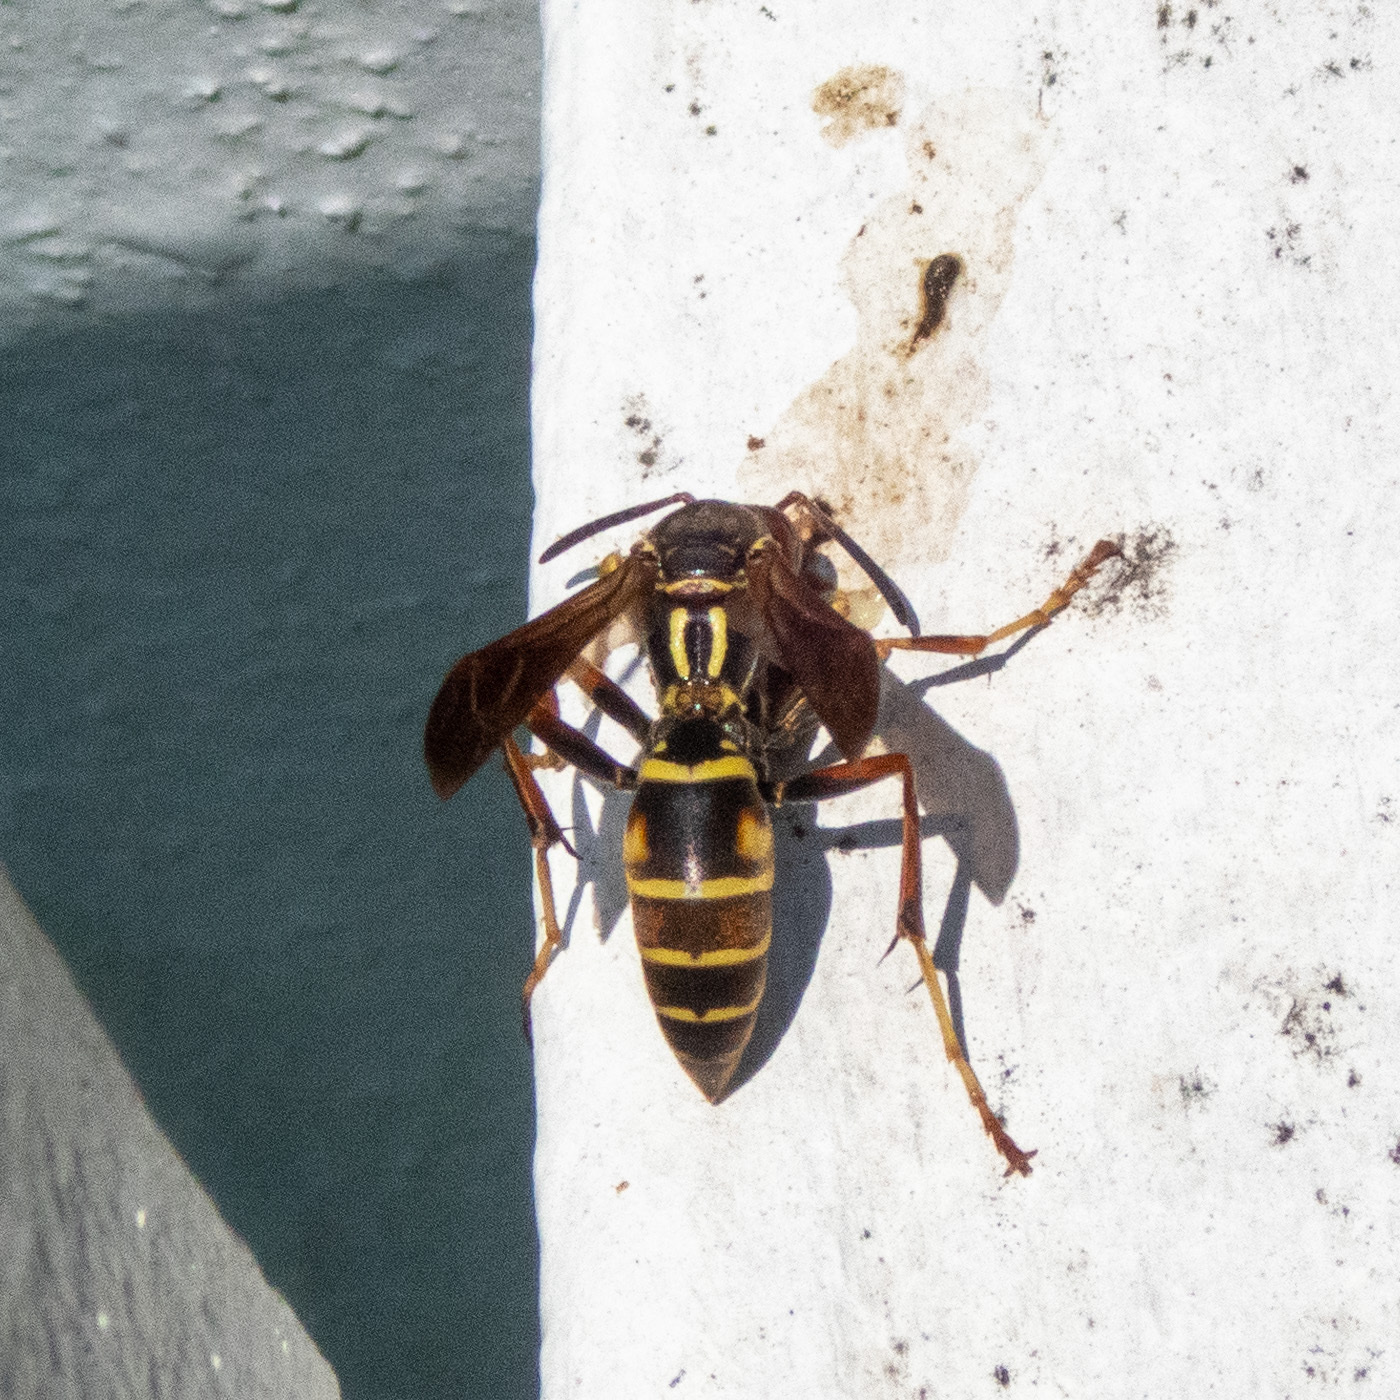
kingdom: Animalia
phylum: Arthropoda
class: Insecta
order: Hymenoptera
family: Eumenidae
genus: Polistes
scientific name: Polistes fuscatus
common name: Dark paper wasp
